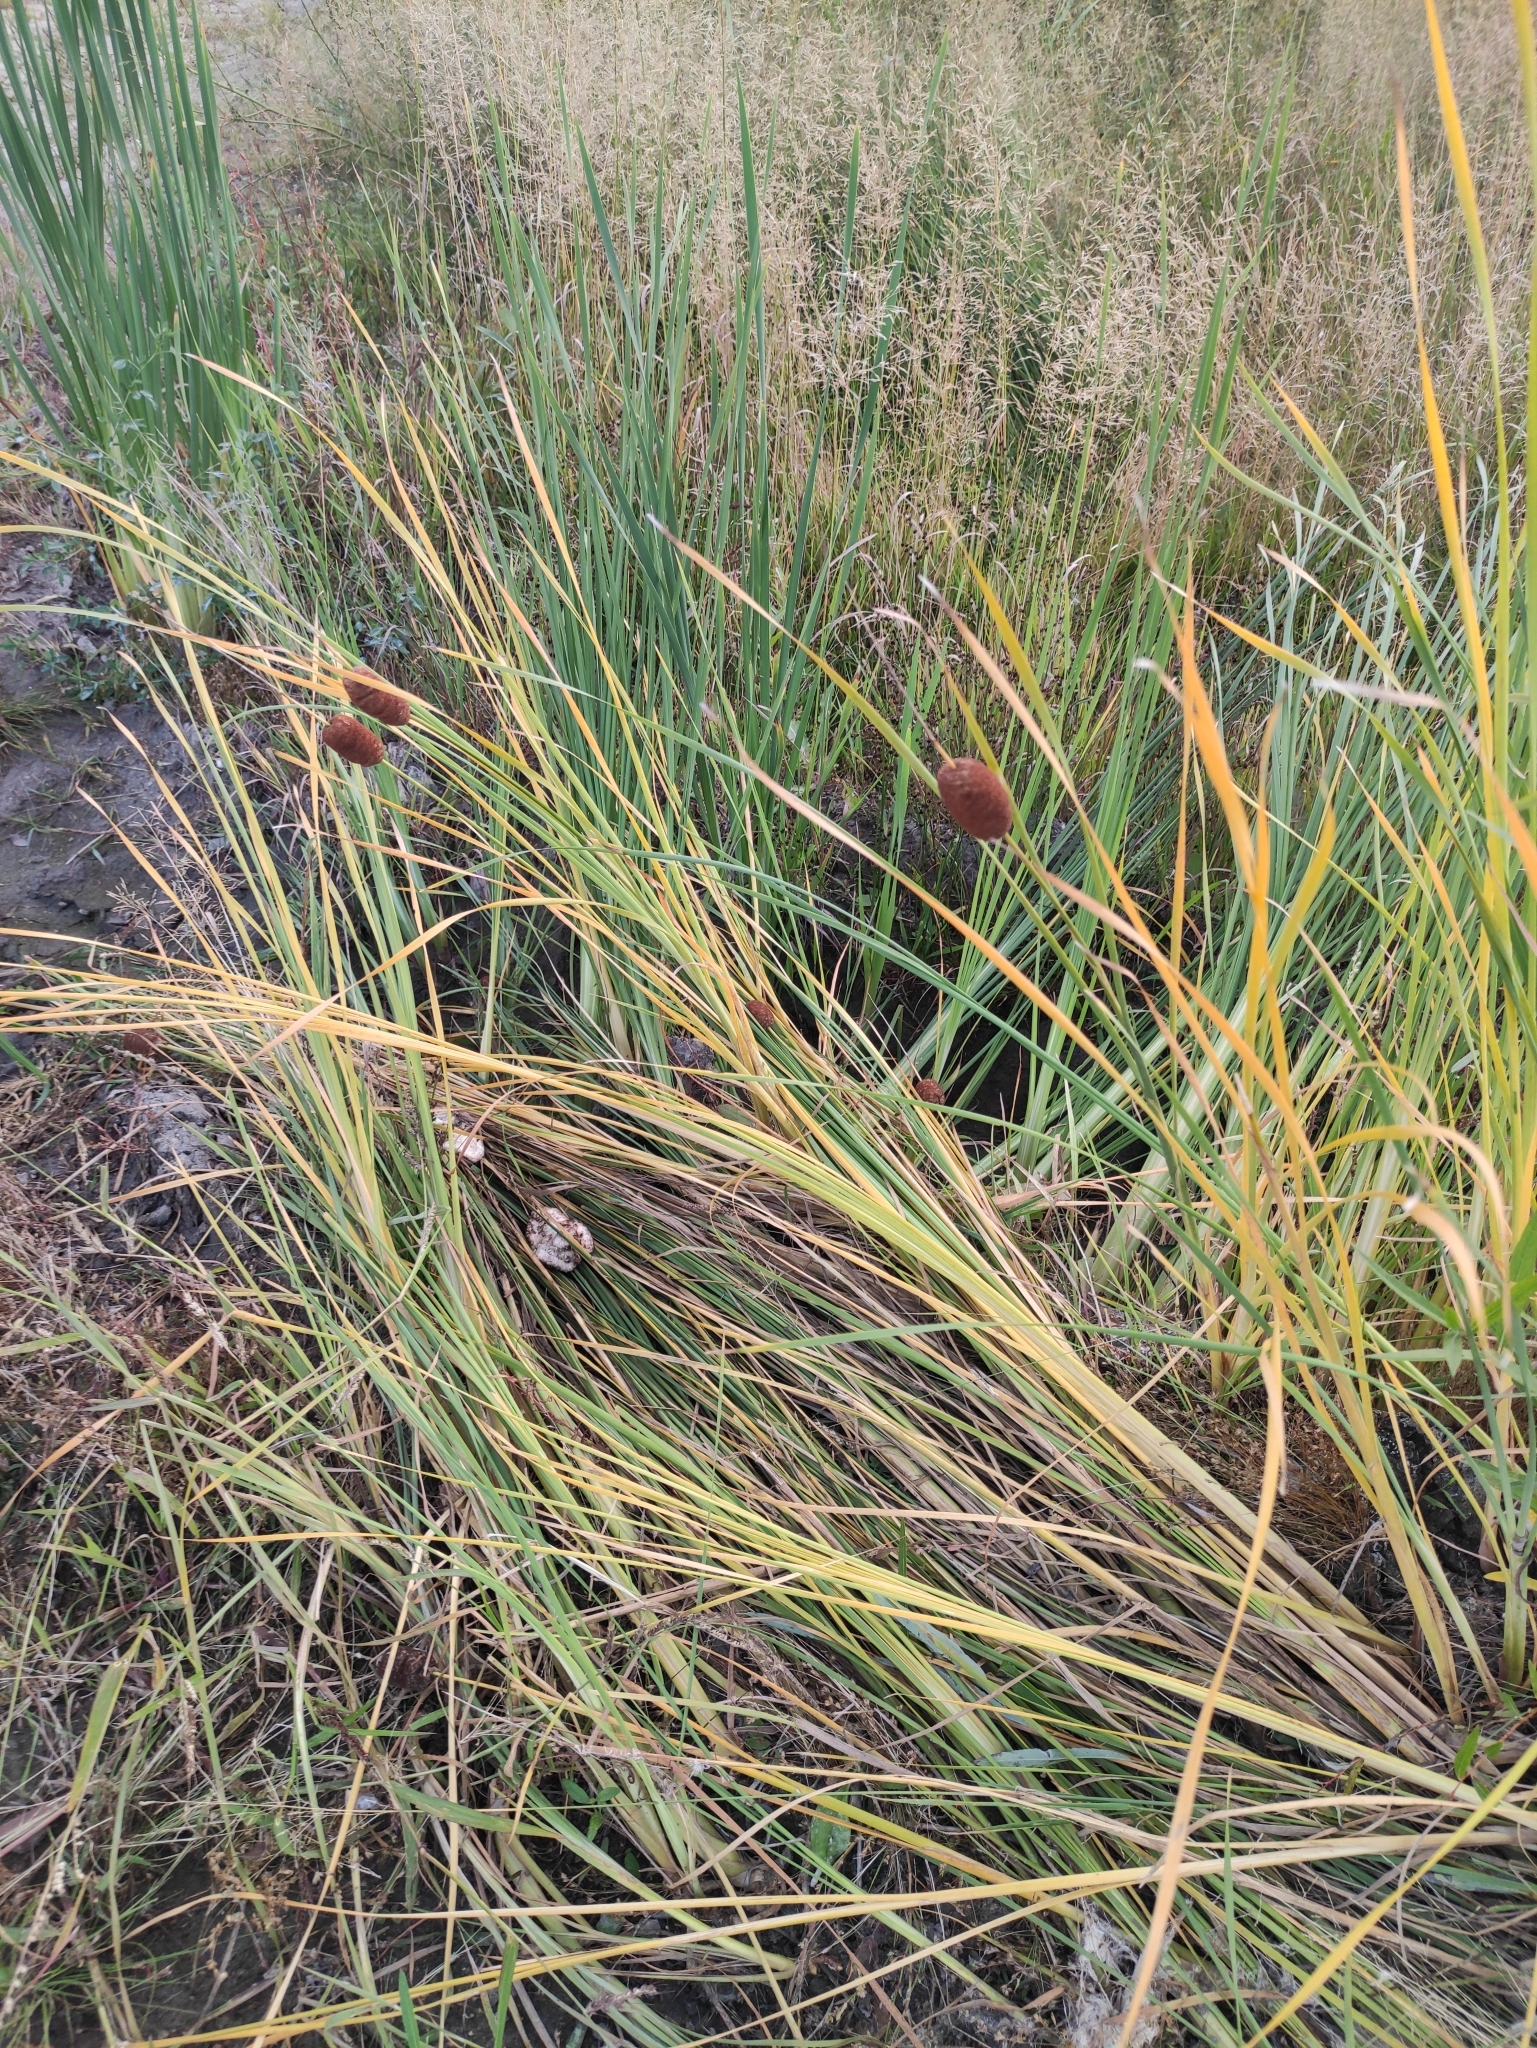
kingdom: Plantae
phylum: Tracheophyta
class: Liliopsida
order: Poales
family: Typhaceae
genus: Typha
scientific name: Typha laxmannii
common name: Laxman’s bulrush
